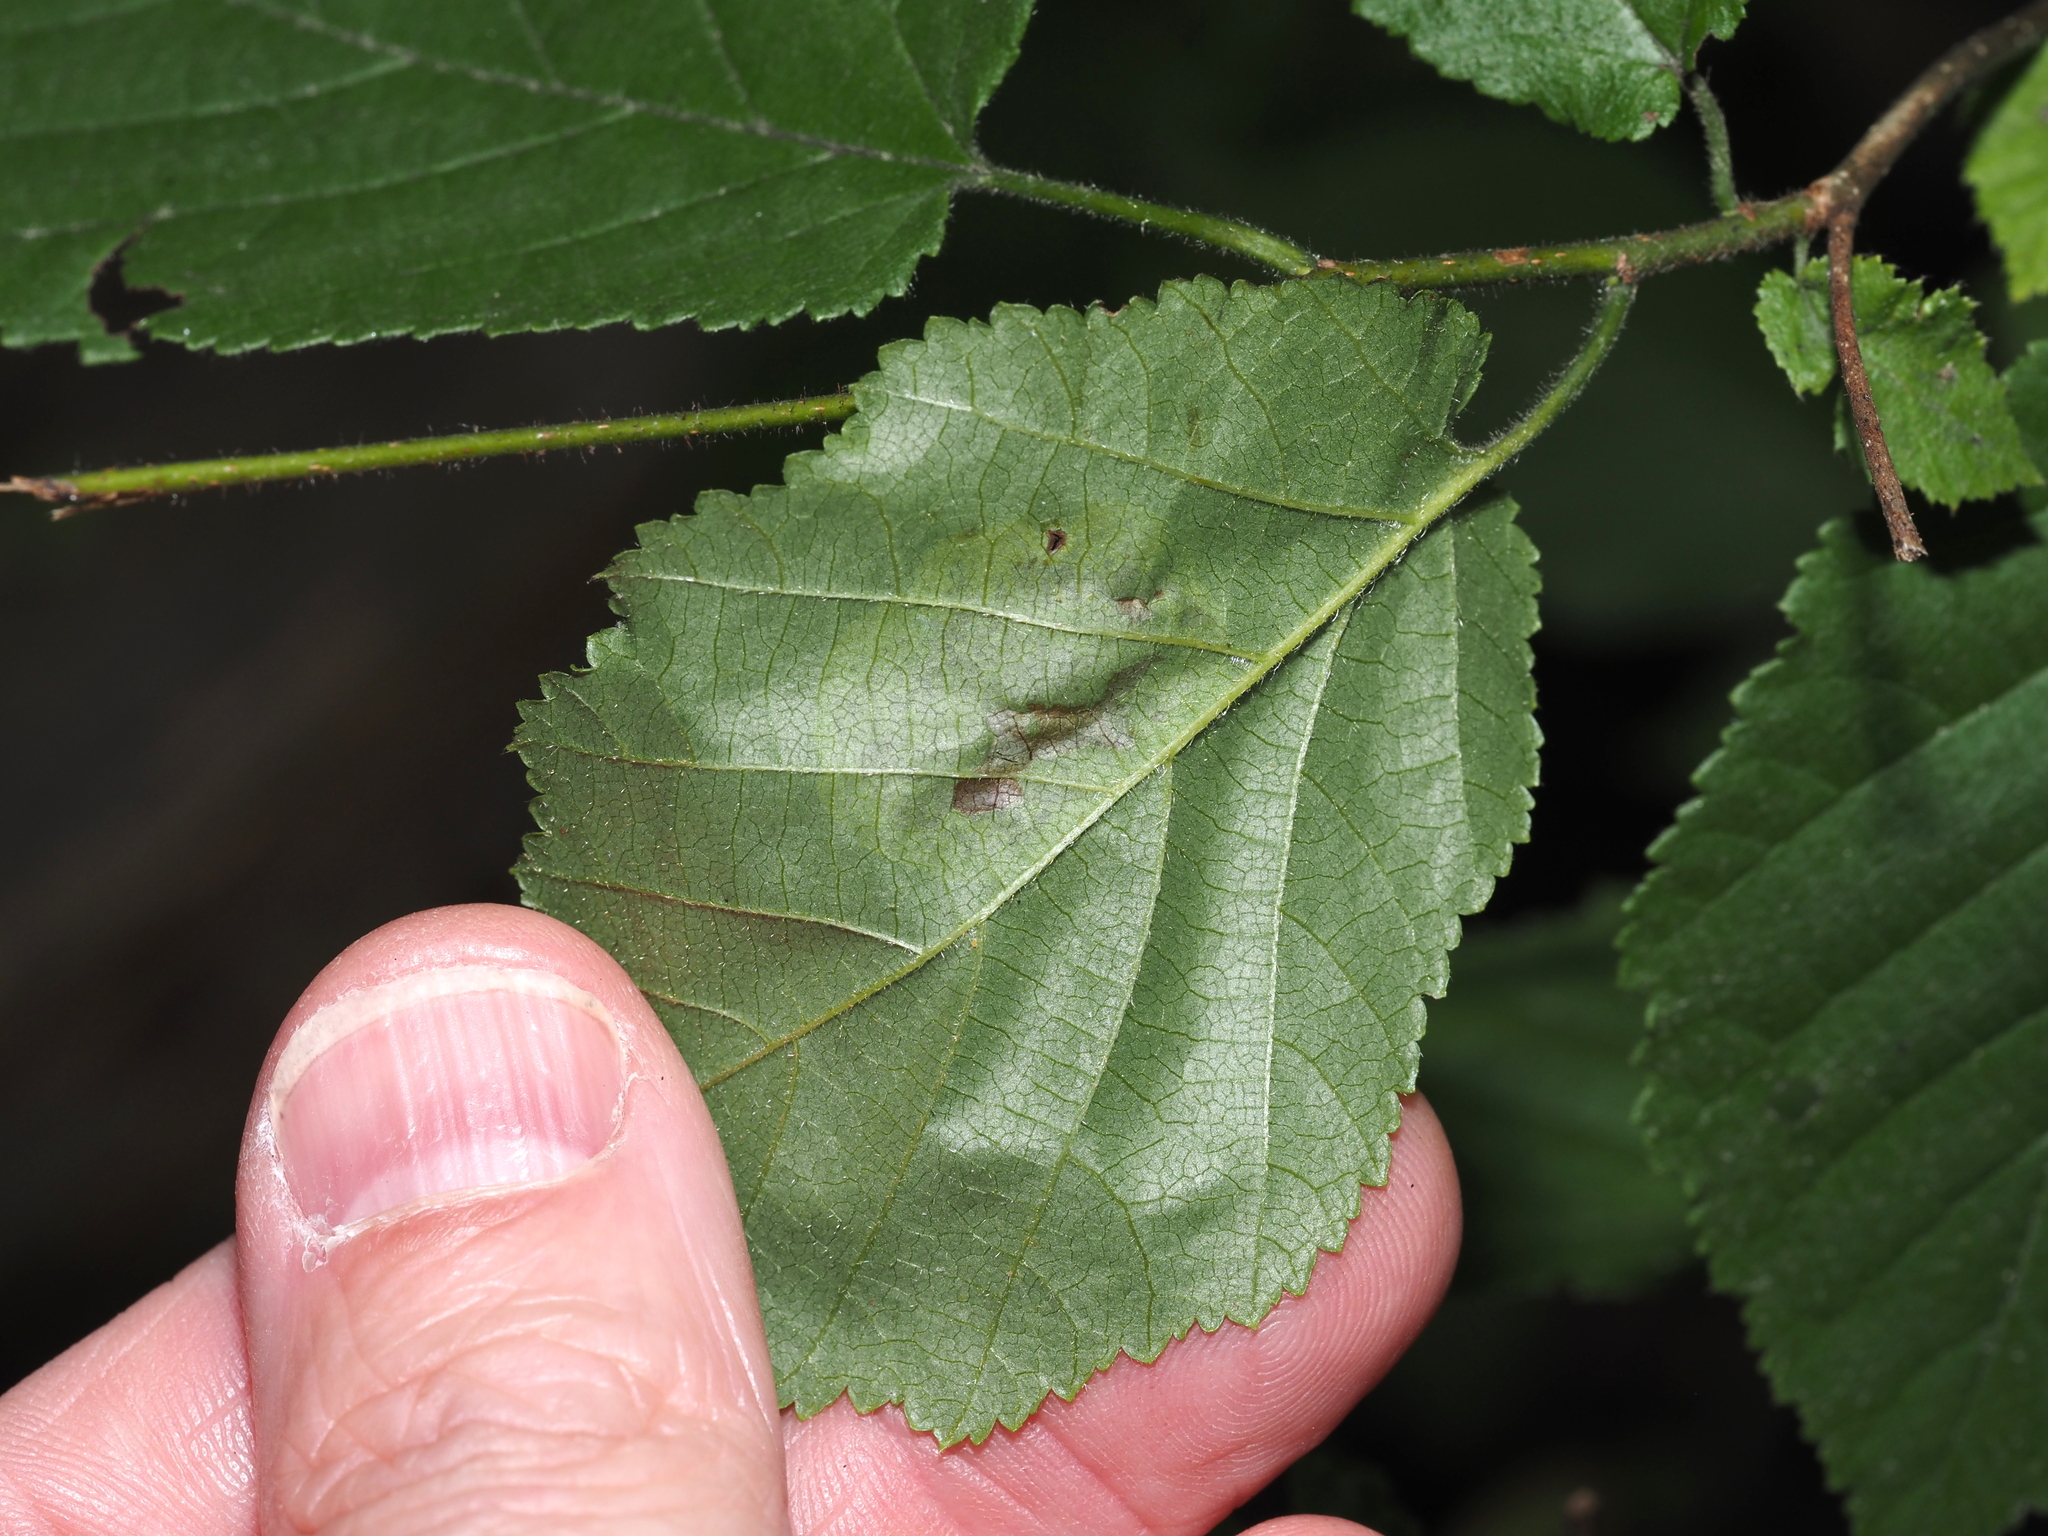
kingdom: Animalia
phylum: Arthropoda
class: Insecta
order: Lepidoptera
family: Gracillariidae
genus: Cameraria
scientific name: Cameraria corylisella
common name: Hazel blotchminer
